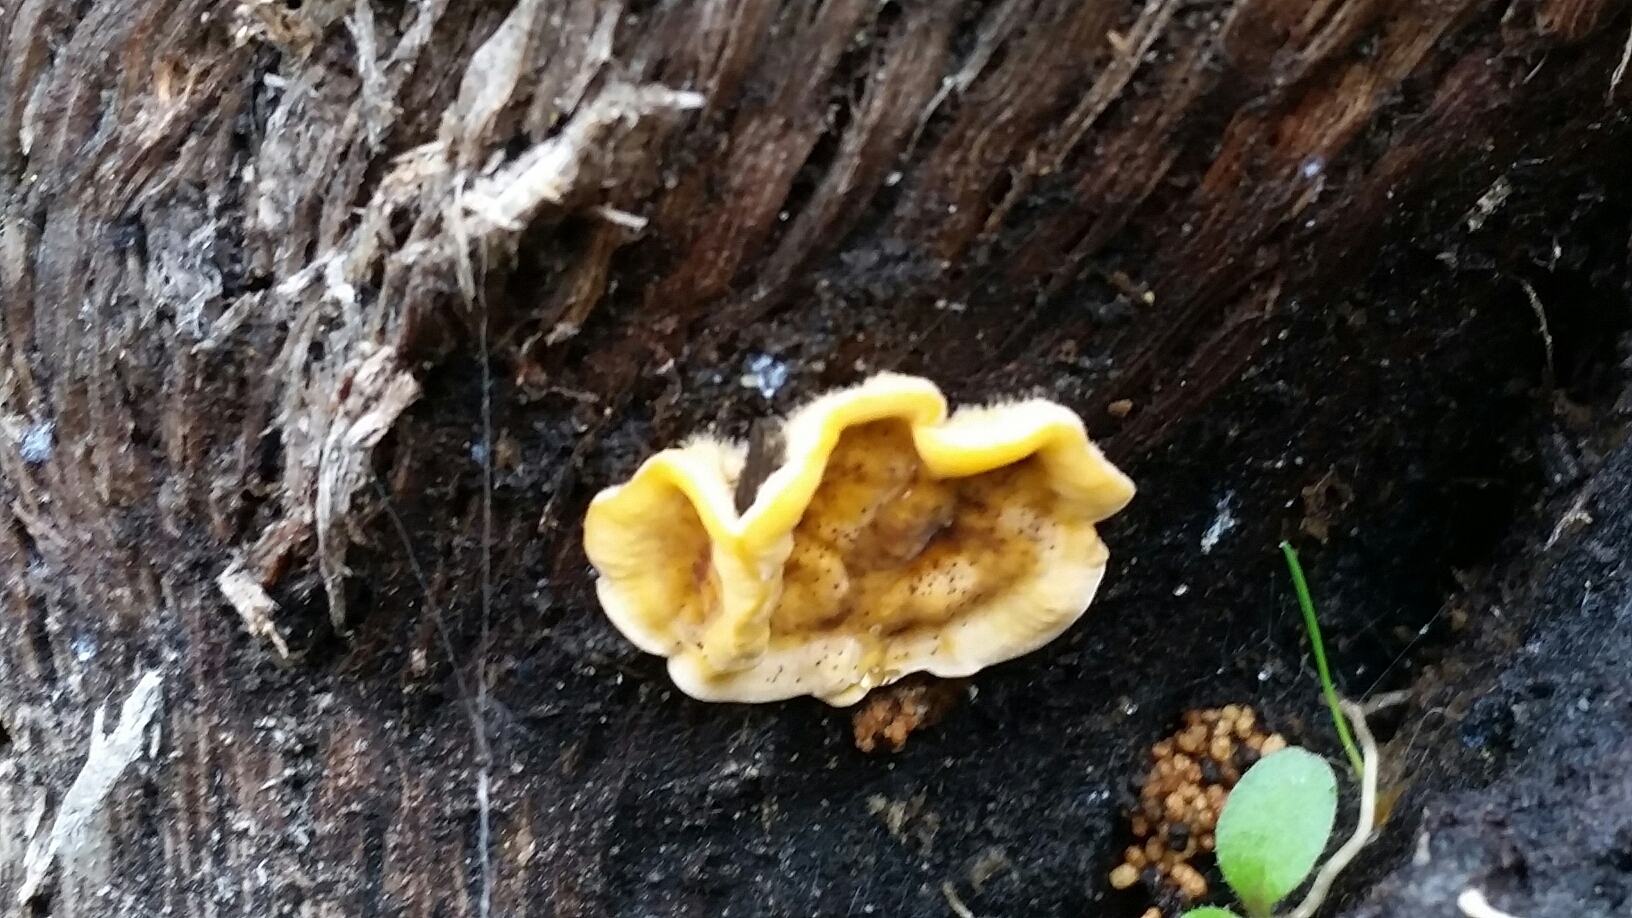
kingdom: Fungi
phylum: Basidiomycota
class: Agaricomycetes
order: Russulales
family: Stereaceae
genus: Stereum
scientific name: Stereum hirsutum
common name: Hairy curtain crust
